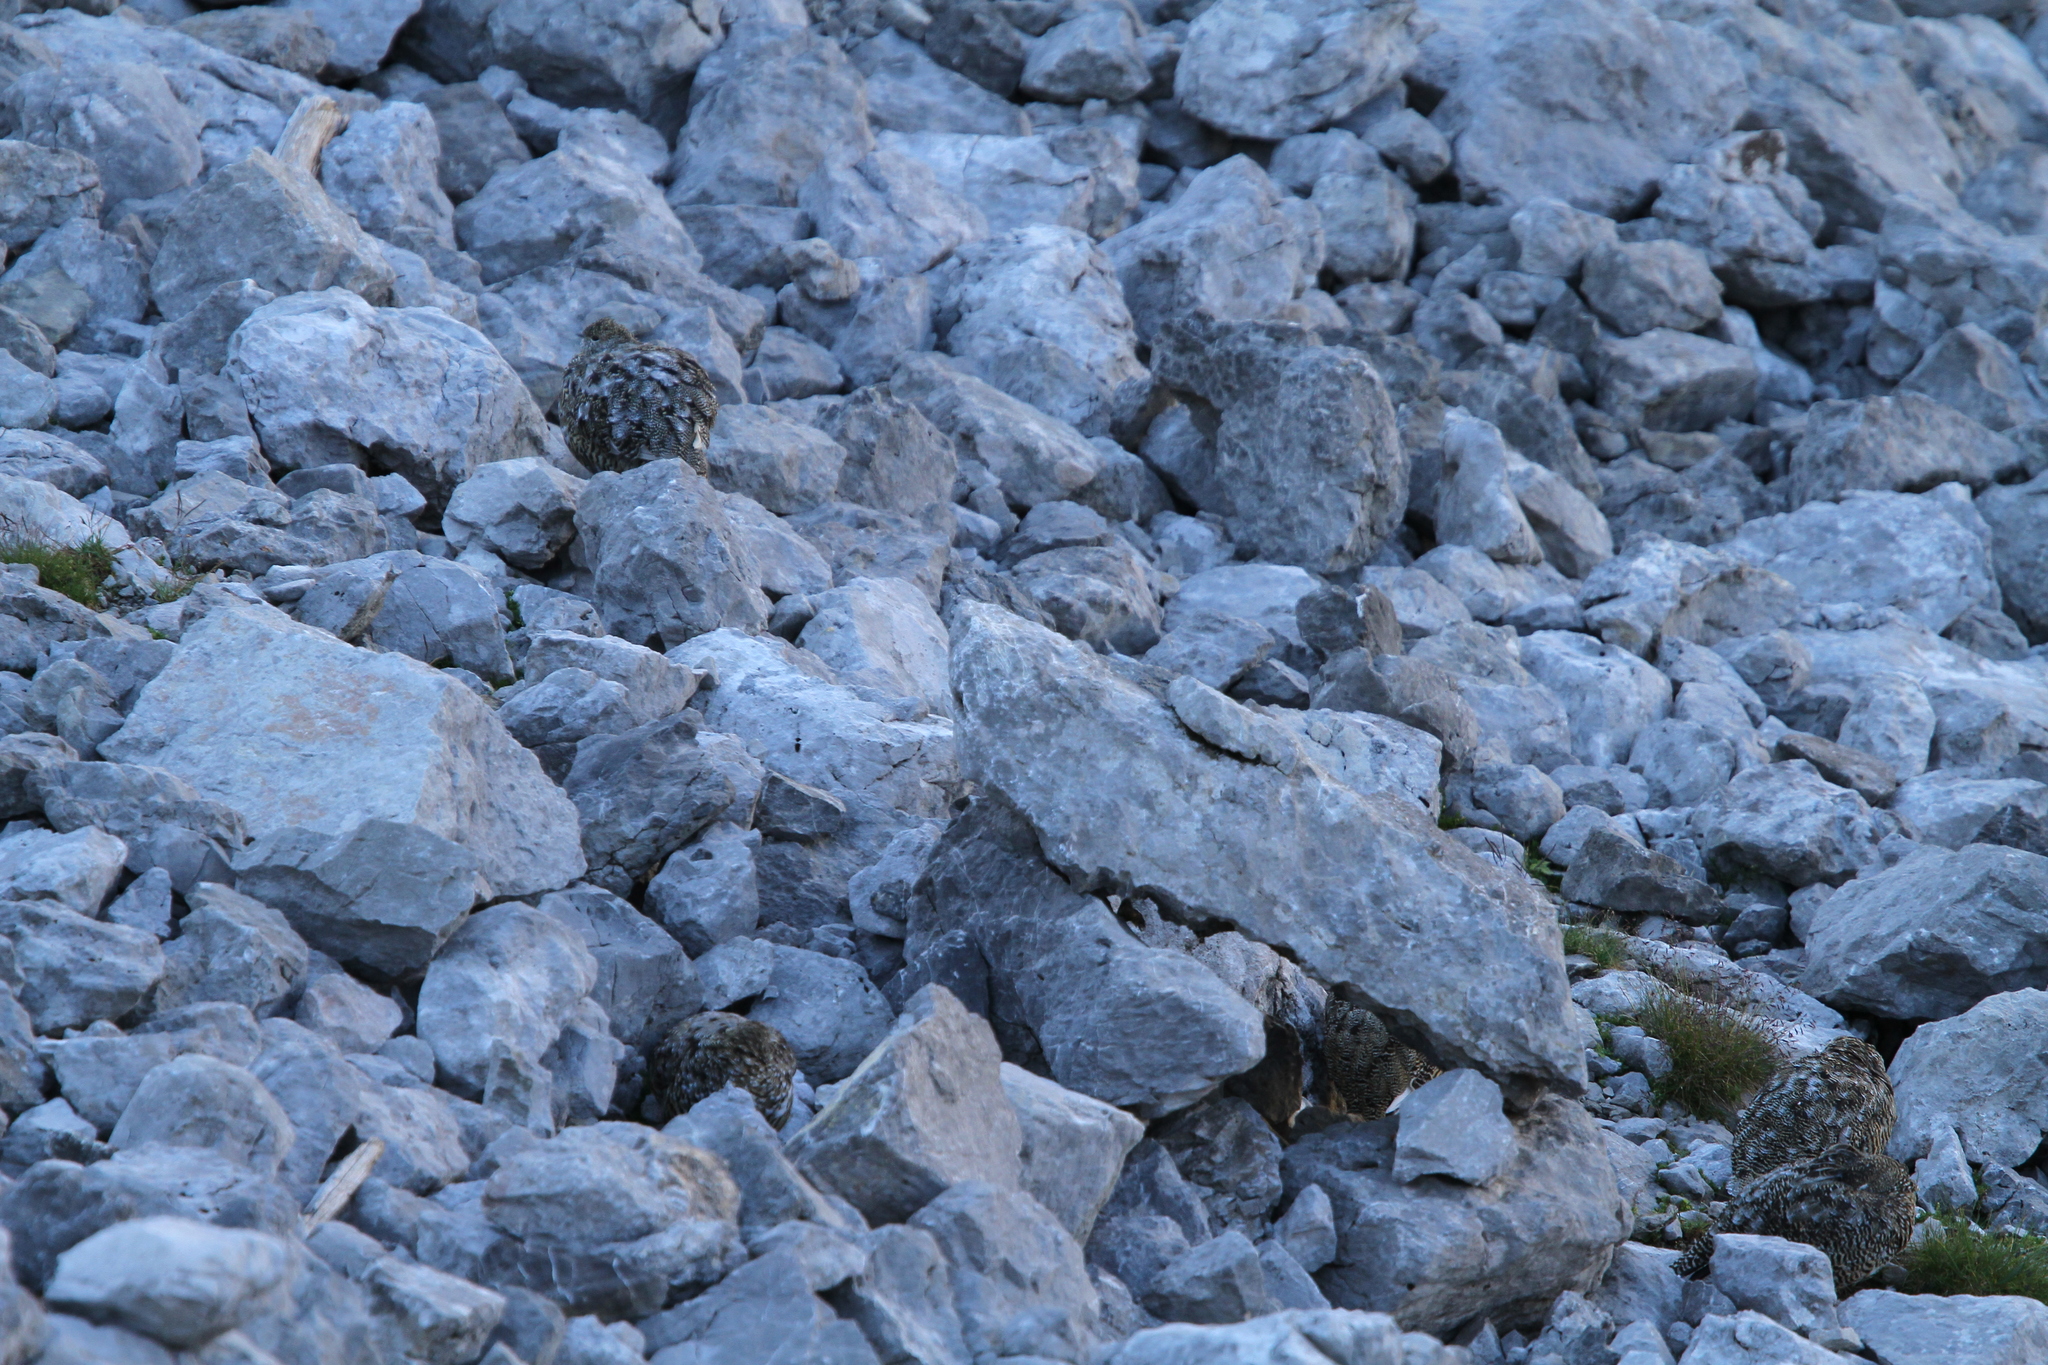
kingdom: Animalia
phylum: Chordata
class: Aves
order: Galliformes
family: Phasianidae
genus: Lagopus
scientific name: Lagopus muta
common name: Rock ptarmigan
